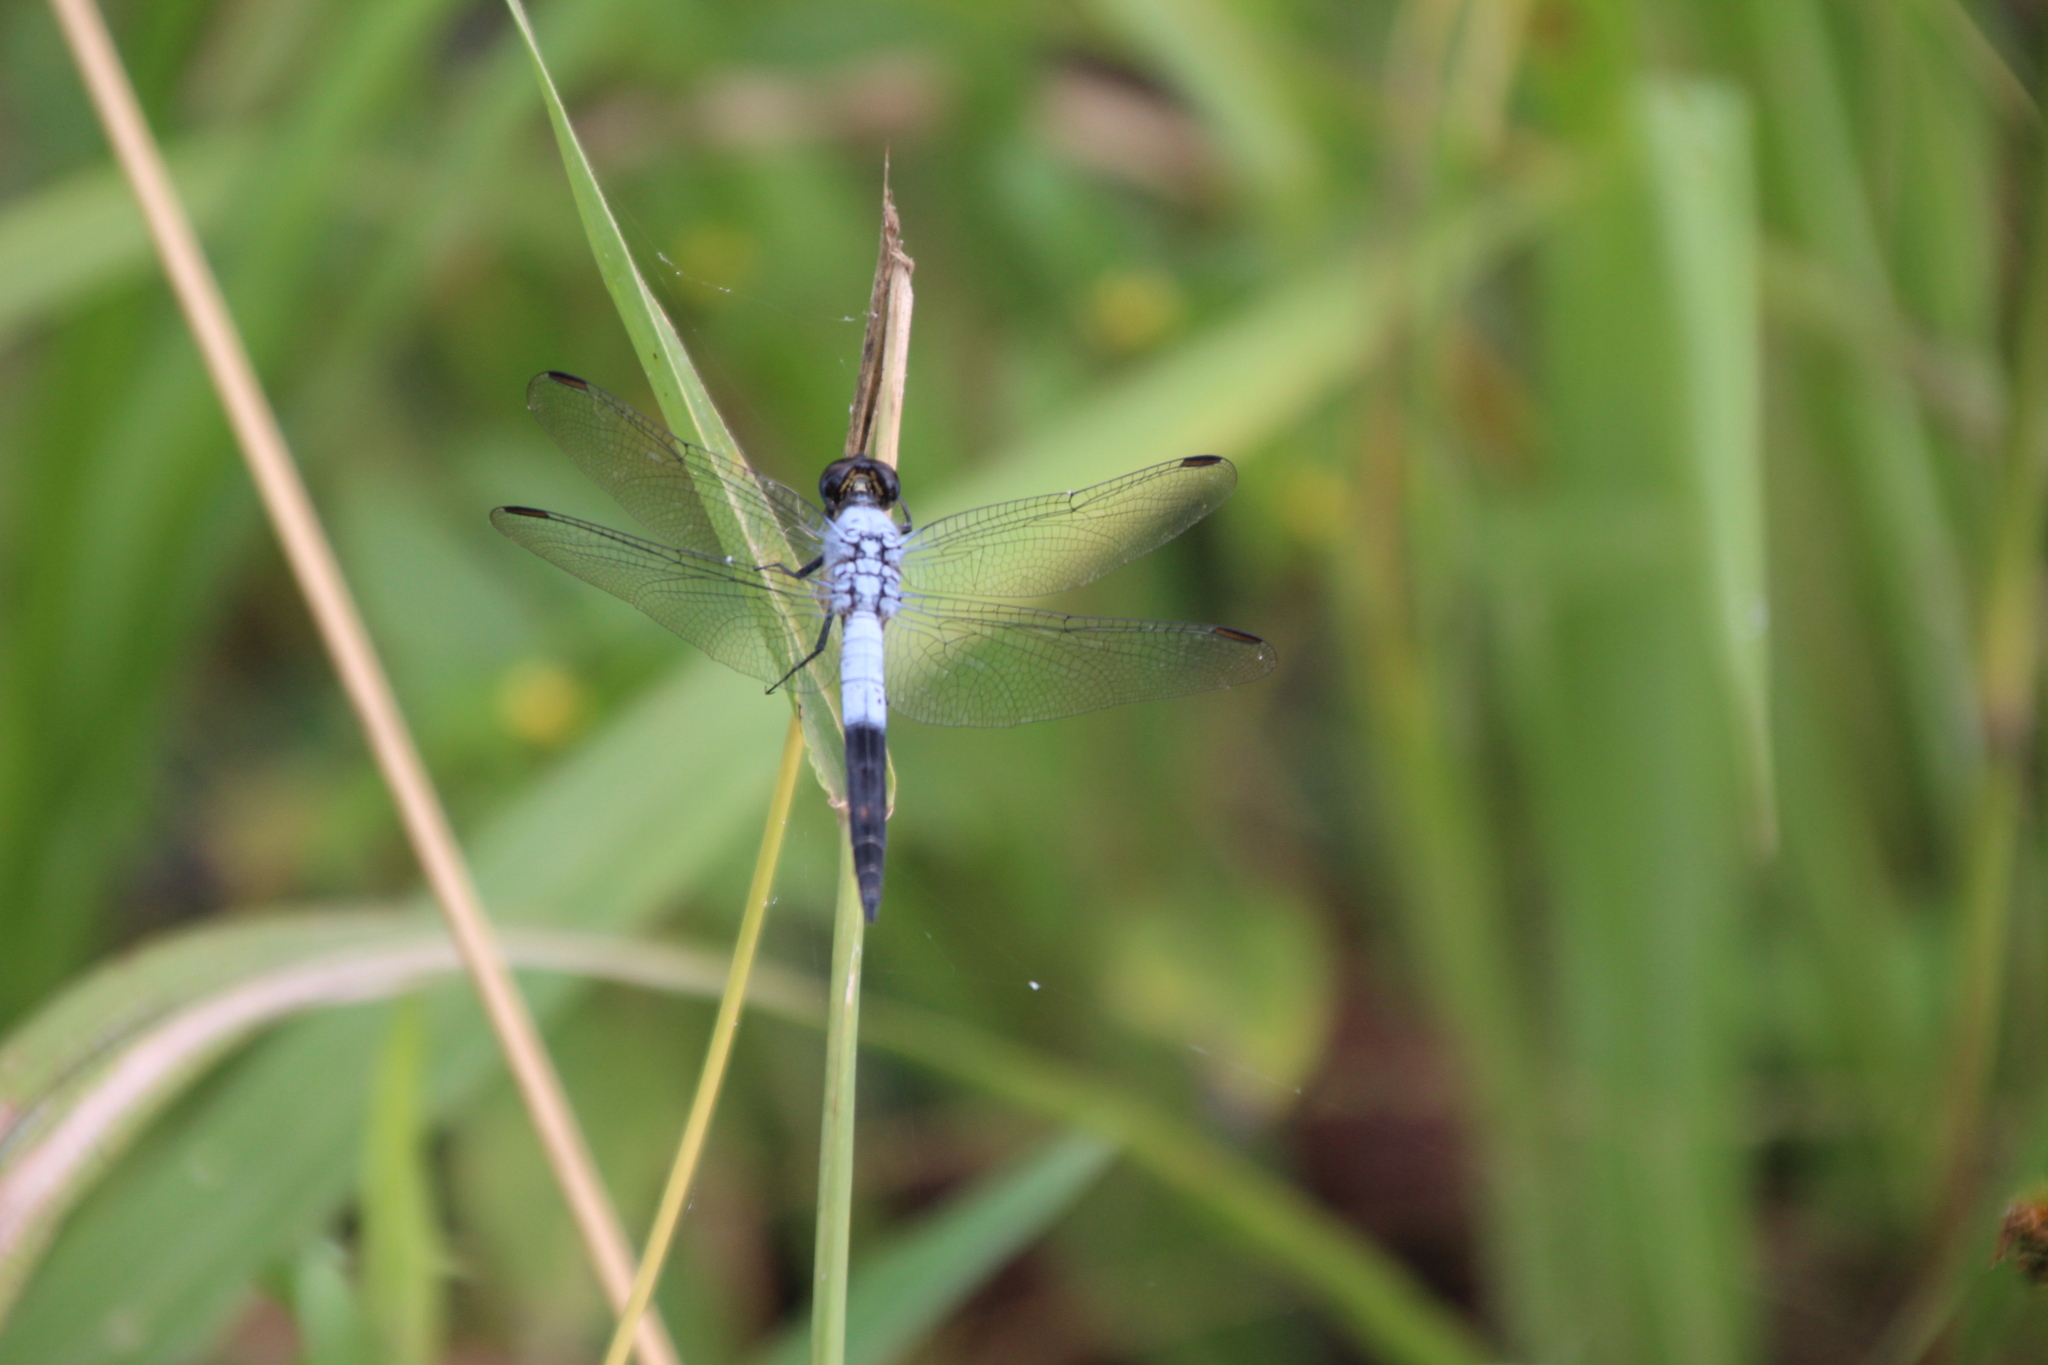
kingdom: Animalia
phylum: Arthropoda
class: Insecta
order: Odonata
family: Libellulidae
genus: Nesciothemis
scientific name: Nesciothemis farinosa
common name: Eastern blacktail
